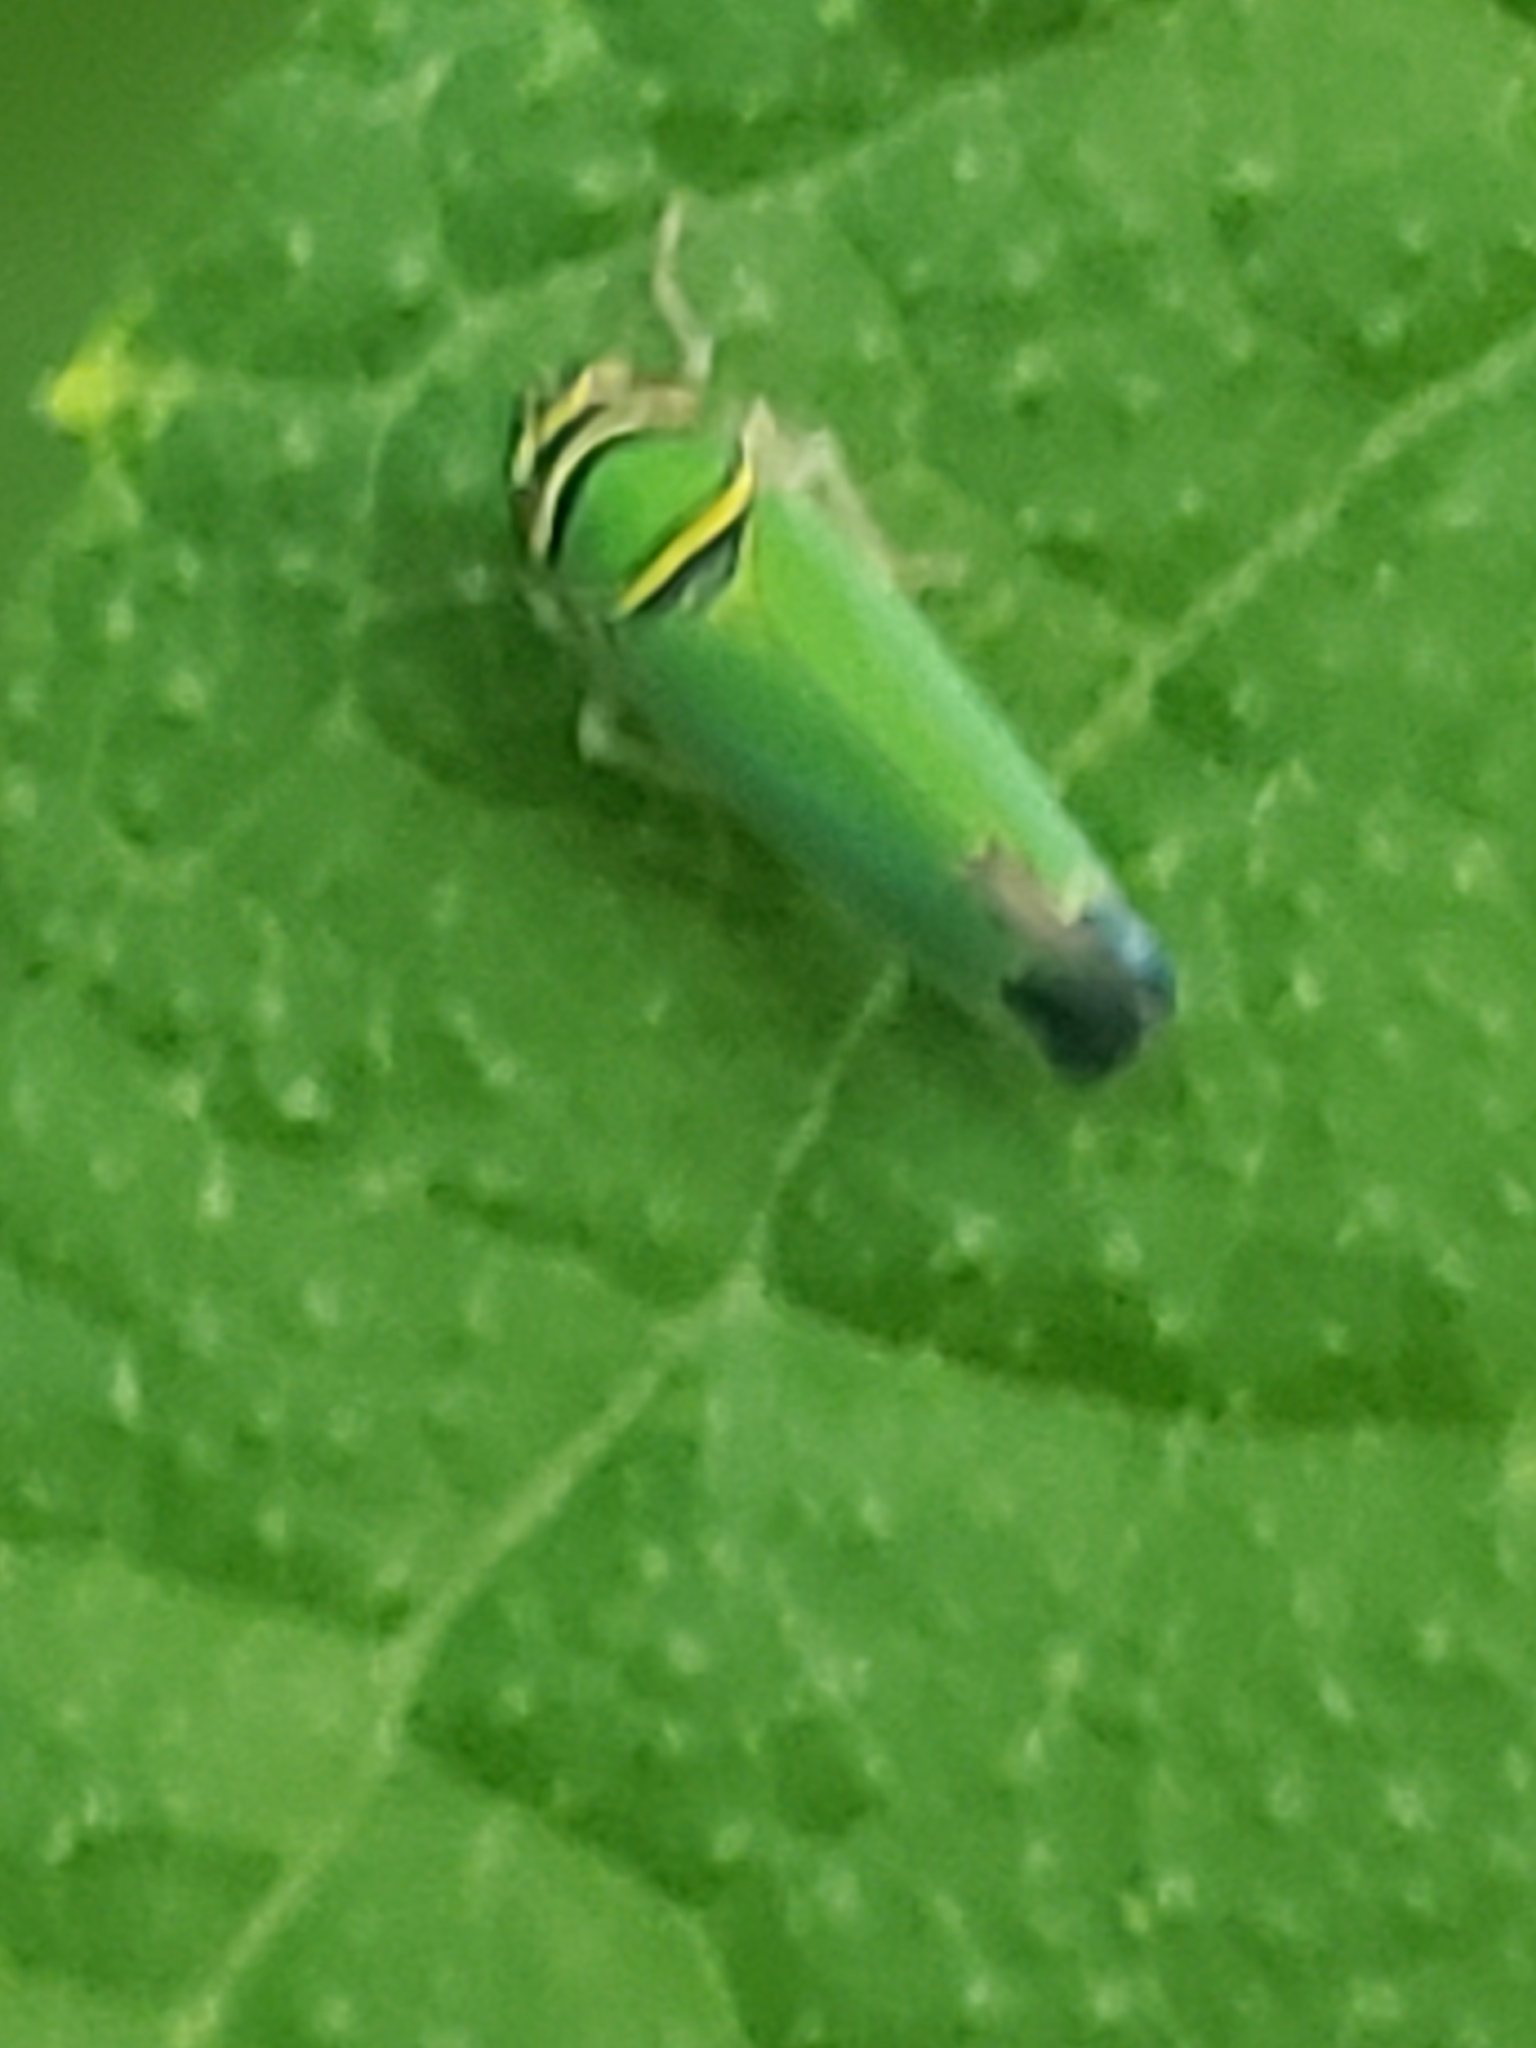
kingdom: Animalia
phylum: Arthropoda
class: Insecta
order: Hemiptera
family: Cicadellidae
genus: Tylozygus
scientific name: Tylozygus geometricus
